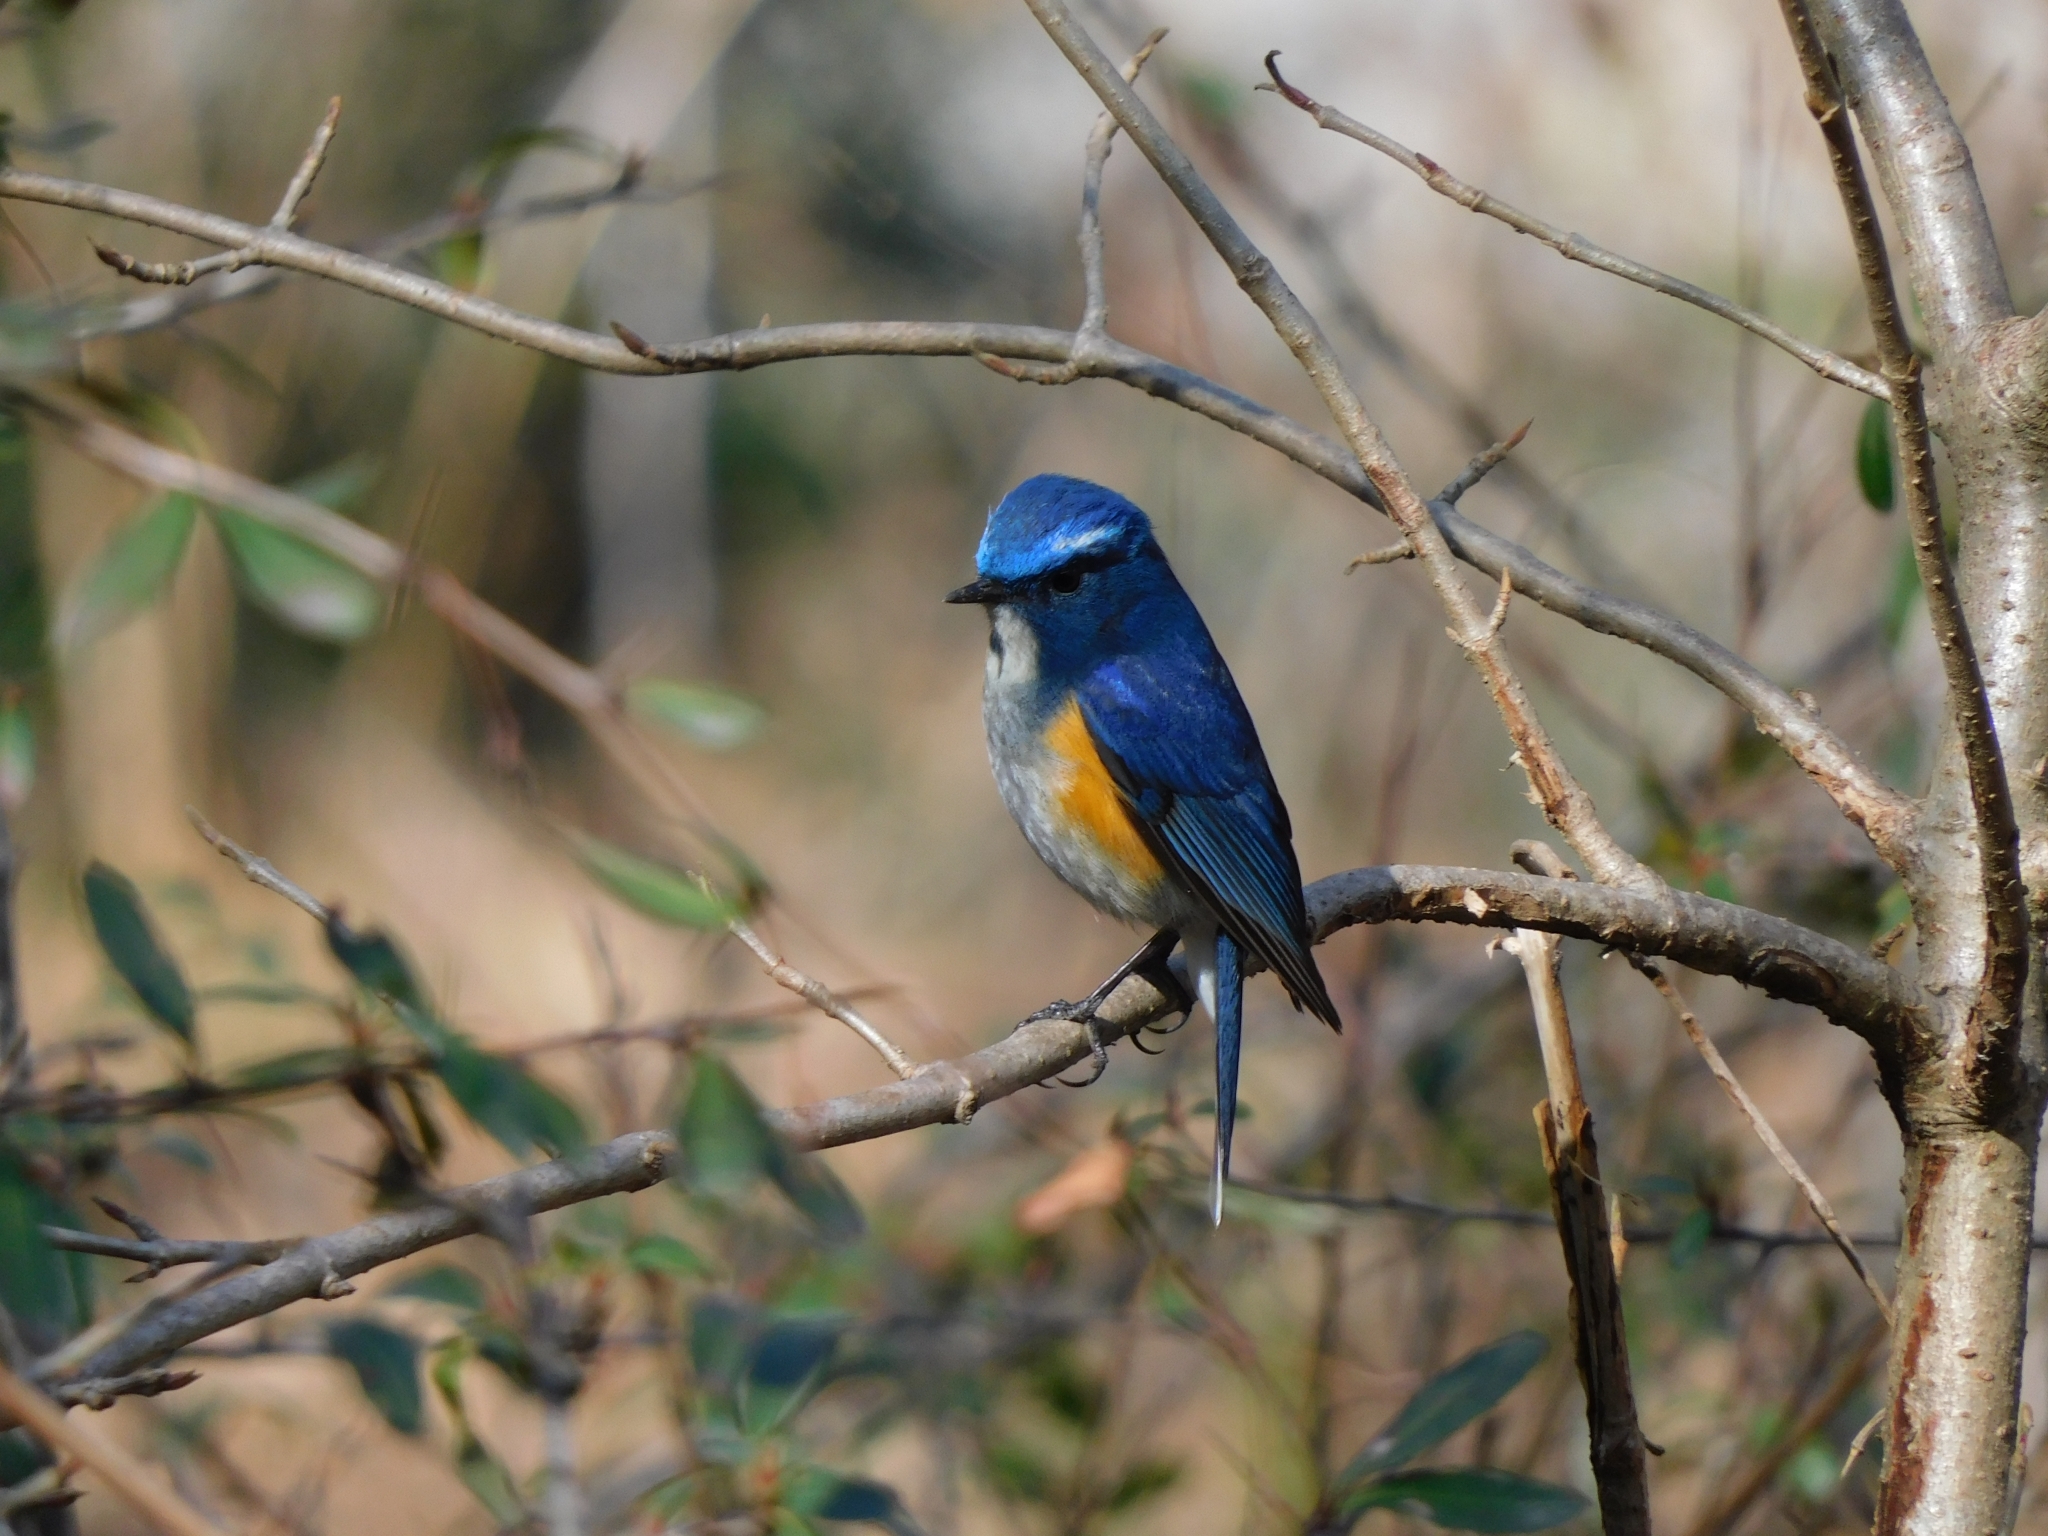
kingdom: Animalia
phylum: Chordata
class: Aves
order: Passeriformes
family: Muscicapidae
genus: Tarsiger
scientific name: Tarsiger rufilatus
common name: Himalayan bluetail
